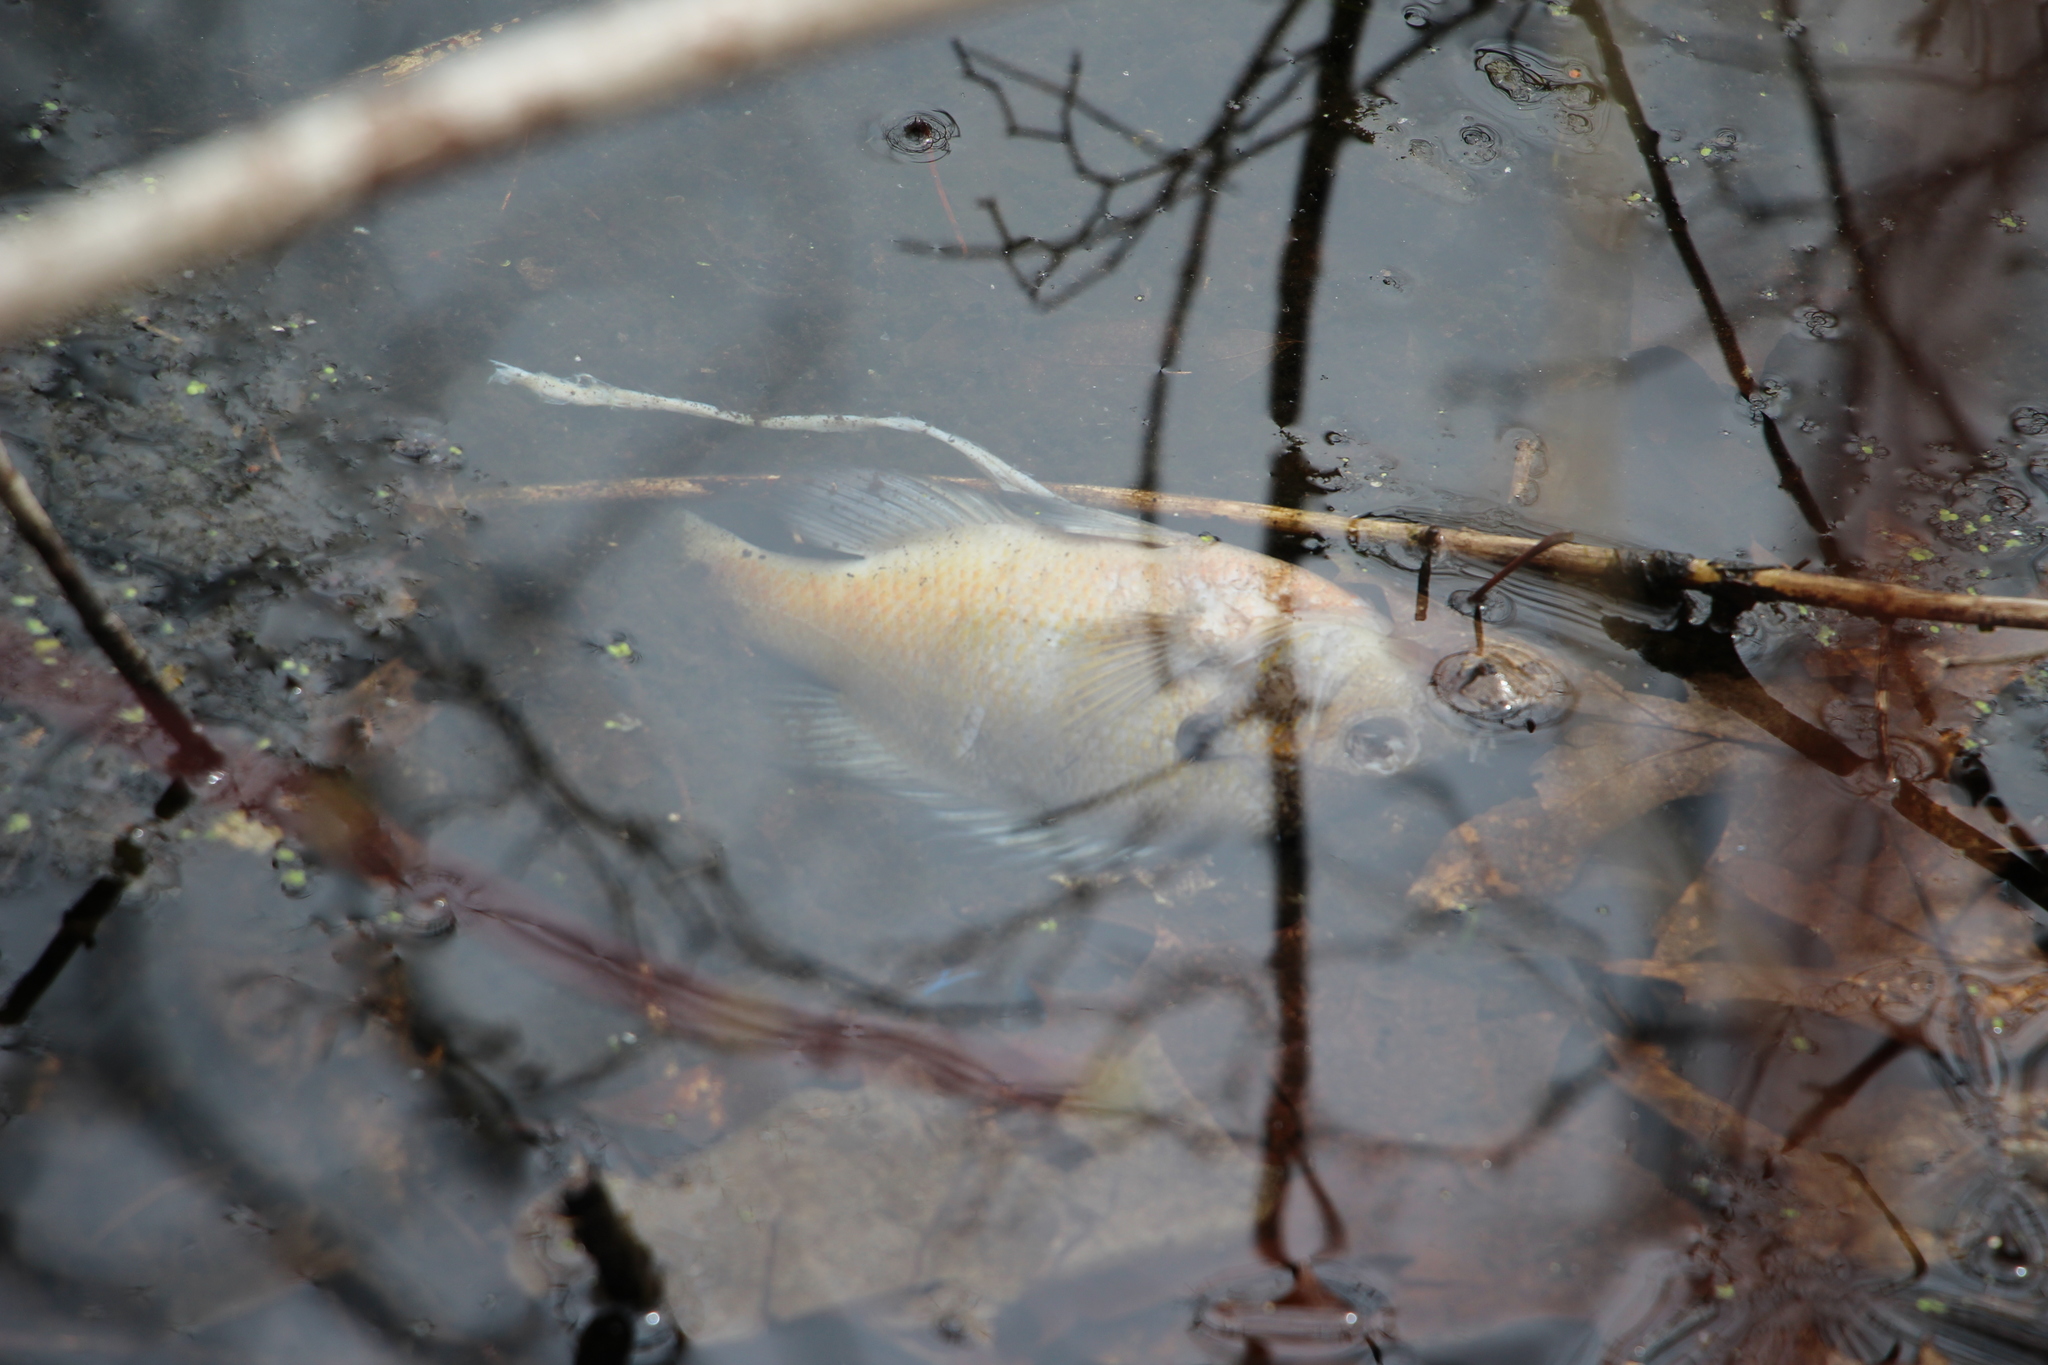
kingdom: Animalia
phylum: Chordata
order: Perciformes
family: Centrarchidae
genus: Lepomis
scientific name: Lepomis macrochirus
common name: Bluegill
